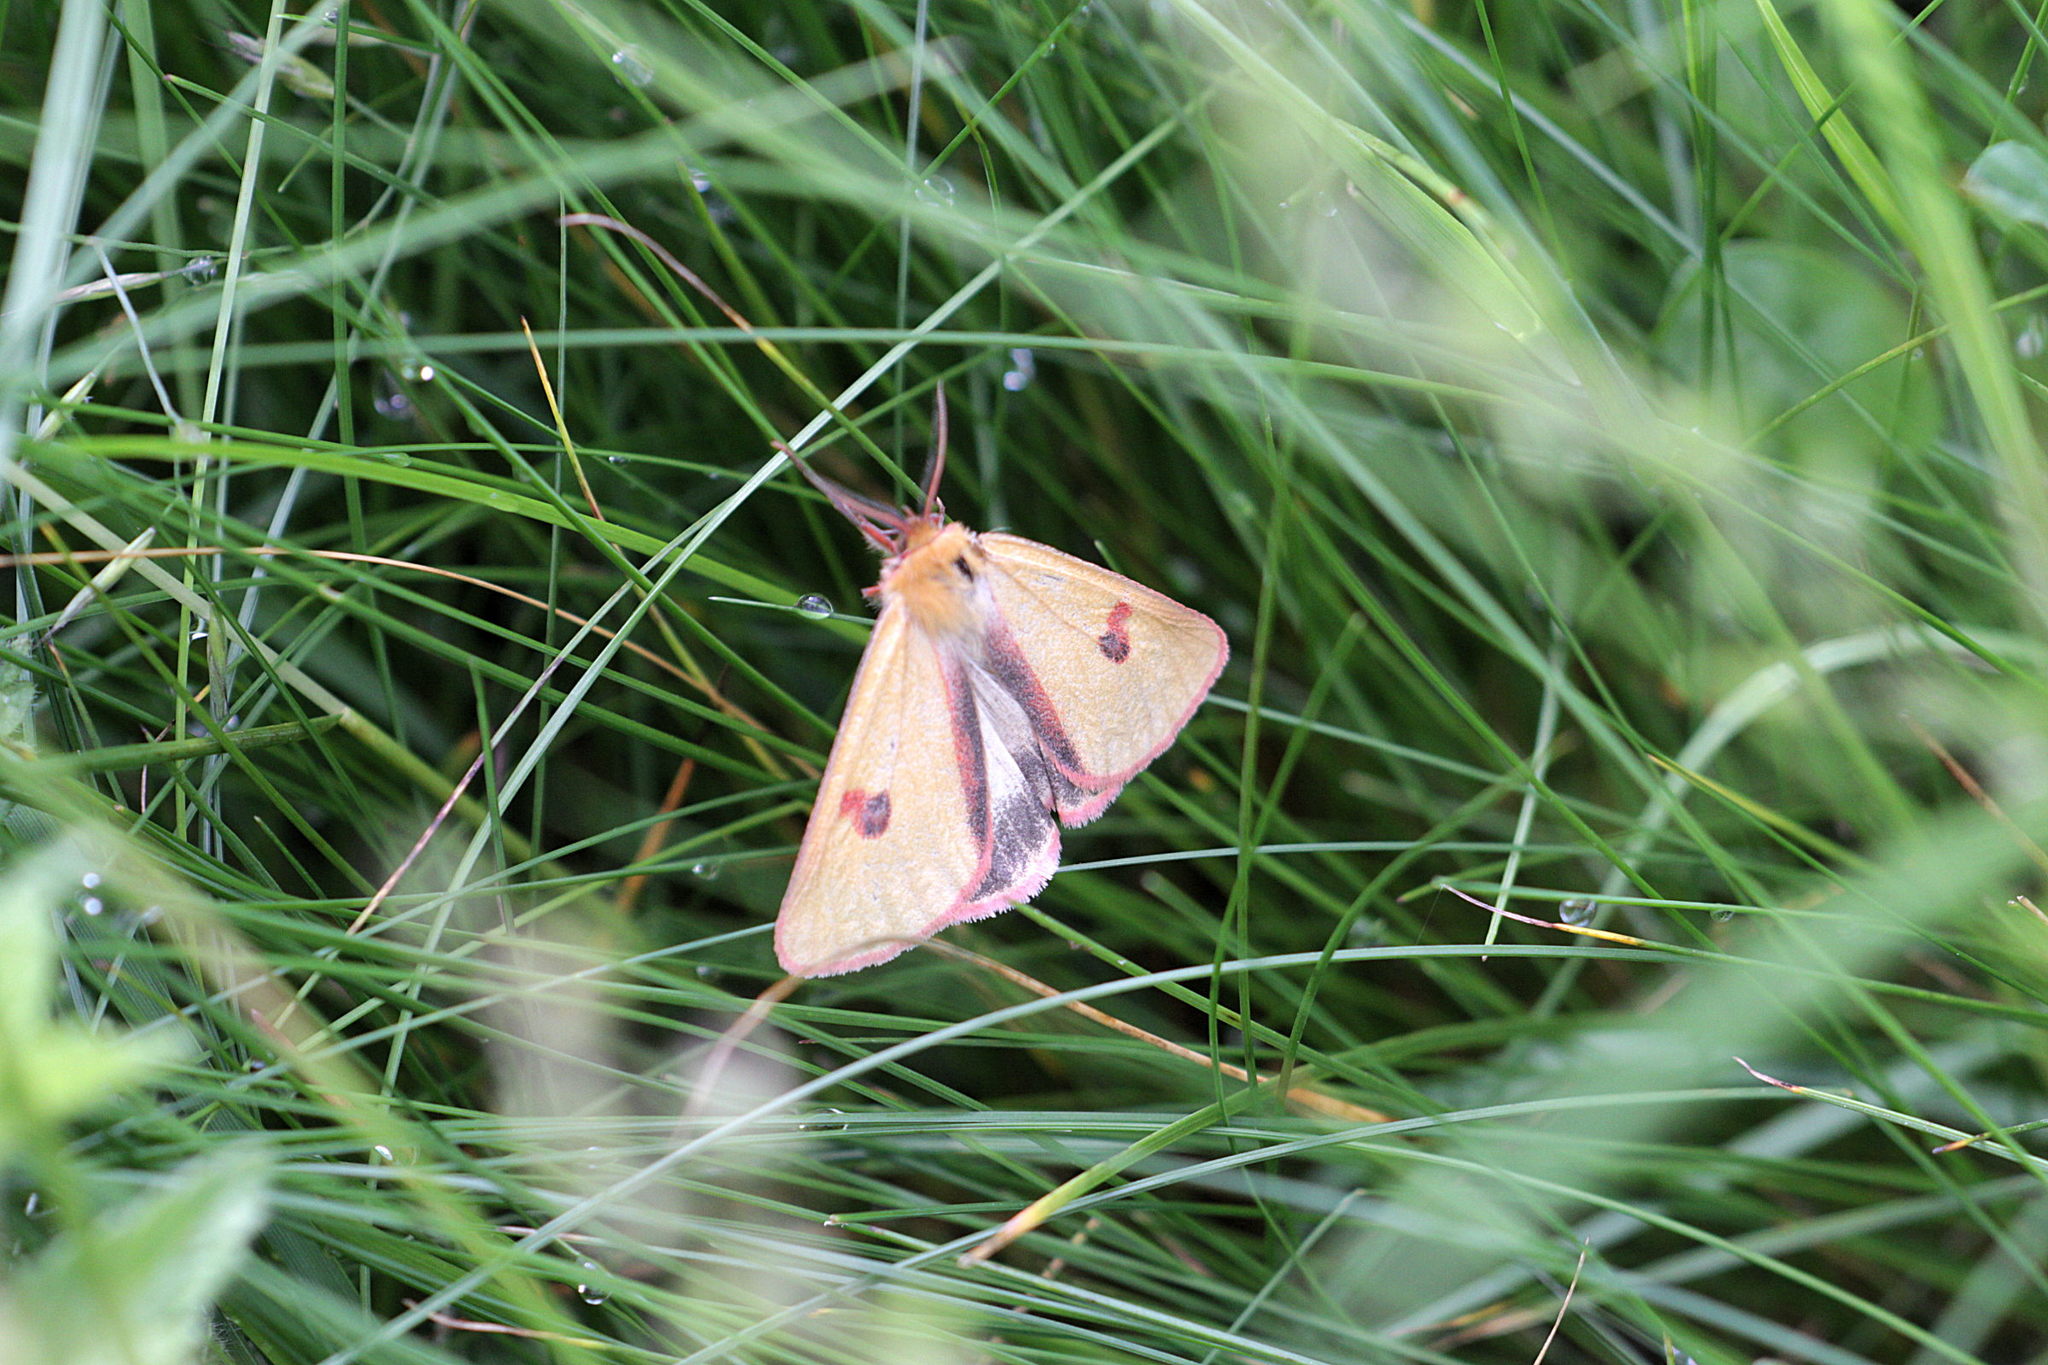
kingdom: Animalia
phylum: Arthropoda
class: Insecta
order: Lepidoptera
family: Erebidae
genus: Diacrisia
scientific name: Diacrisia sannio
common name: Clouded buff
